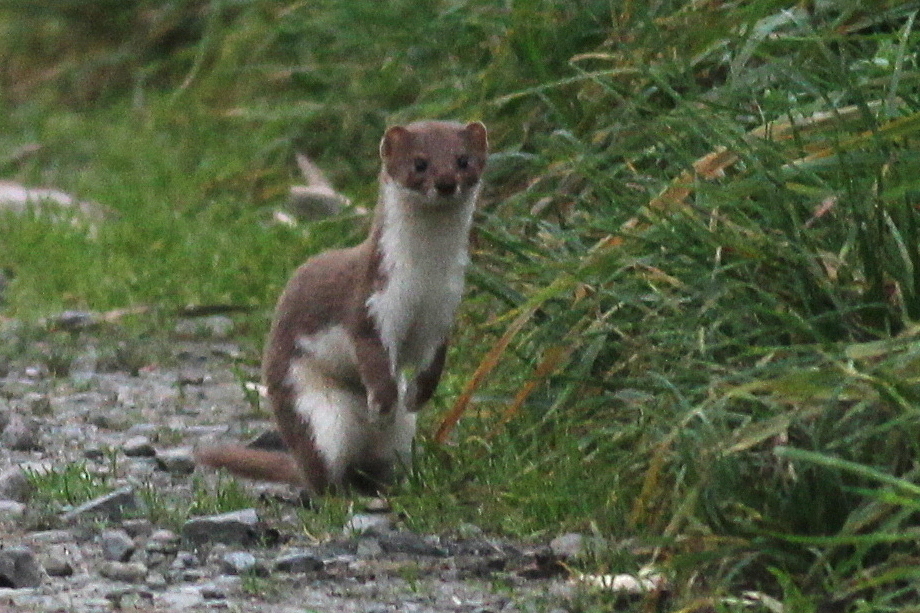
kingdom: Animalia
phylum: Chordata
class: Mammalia
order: Carnivora
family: Mustelidae
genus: Mustela
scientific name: Mustela nivalis
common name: Least weasel
